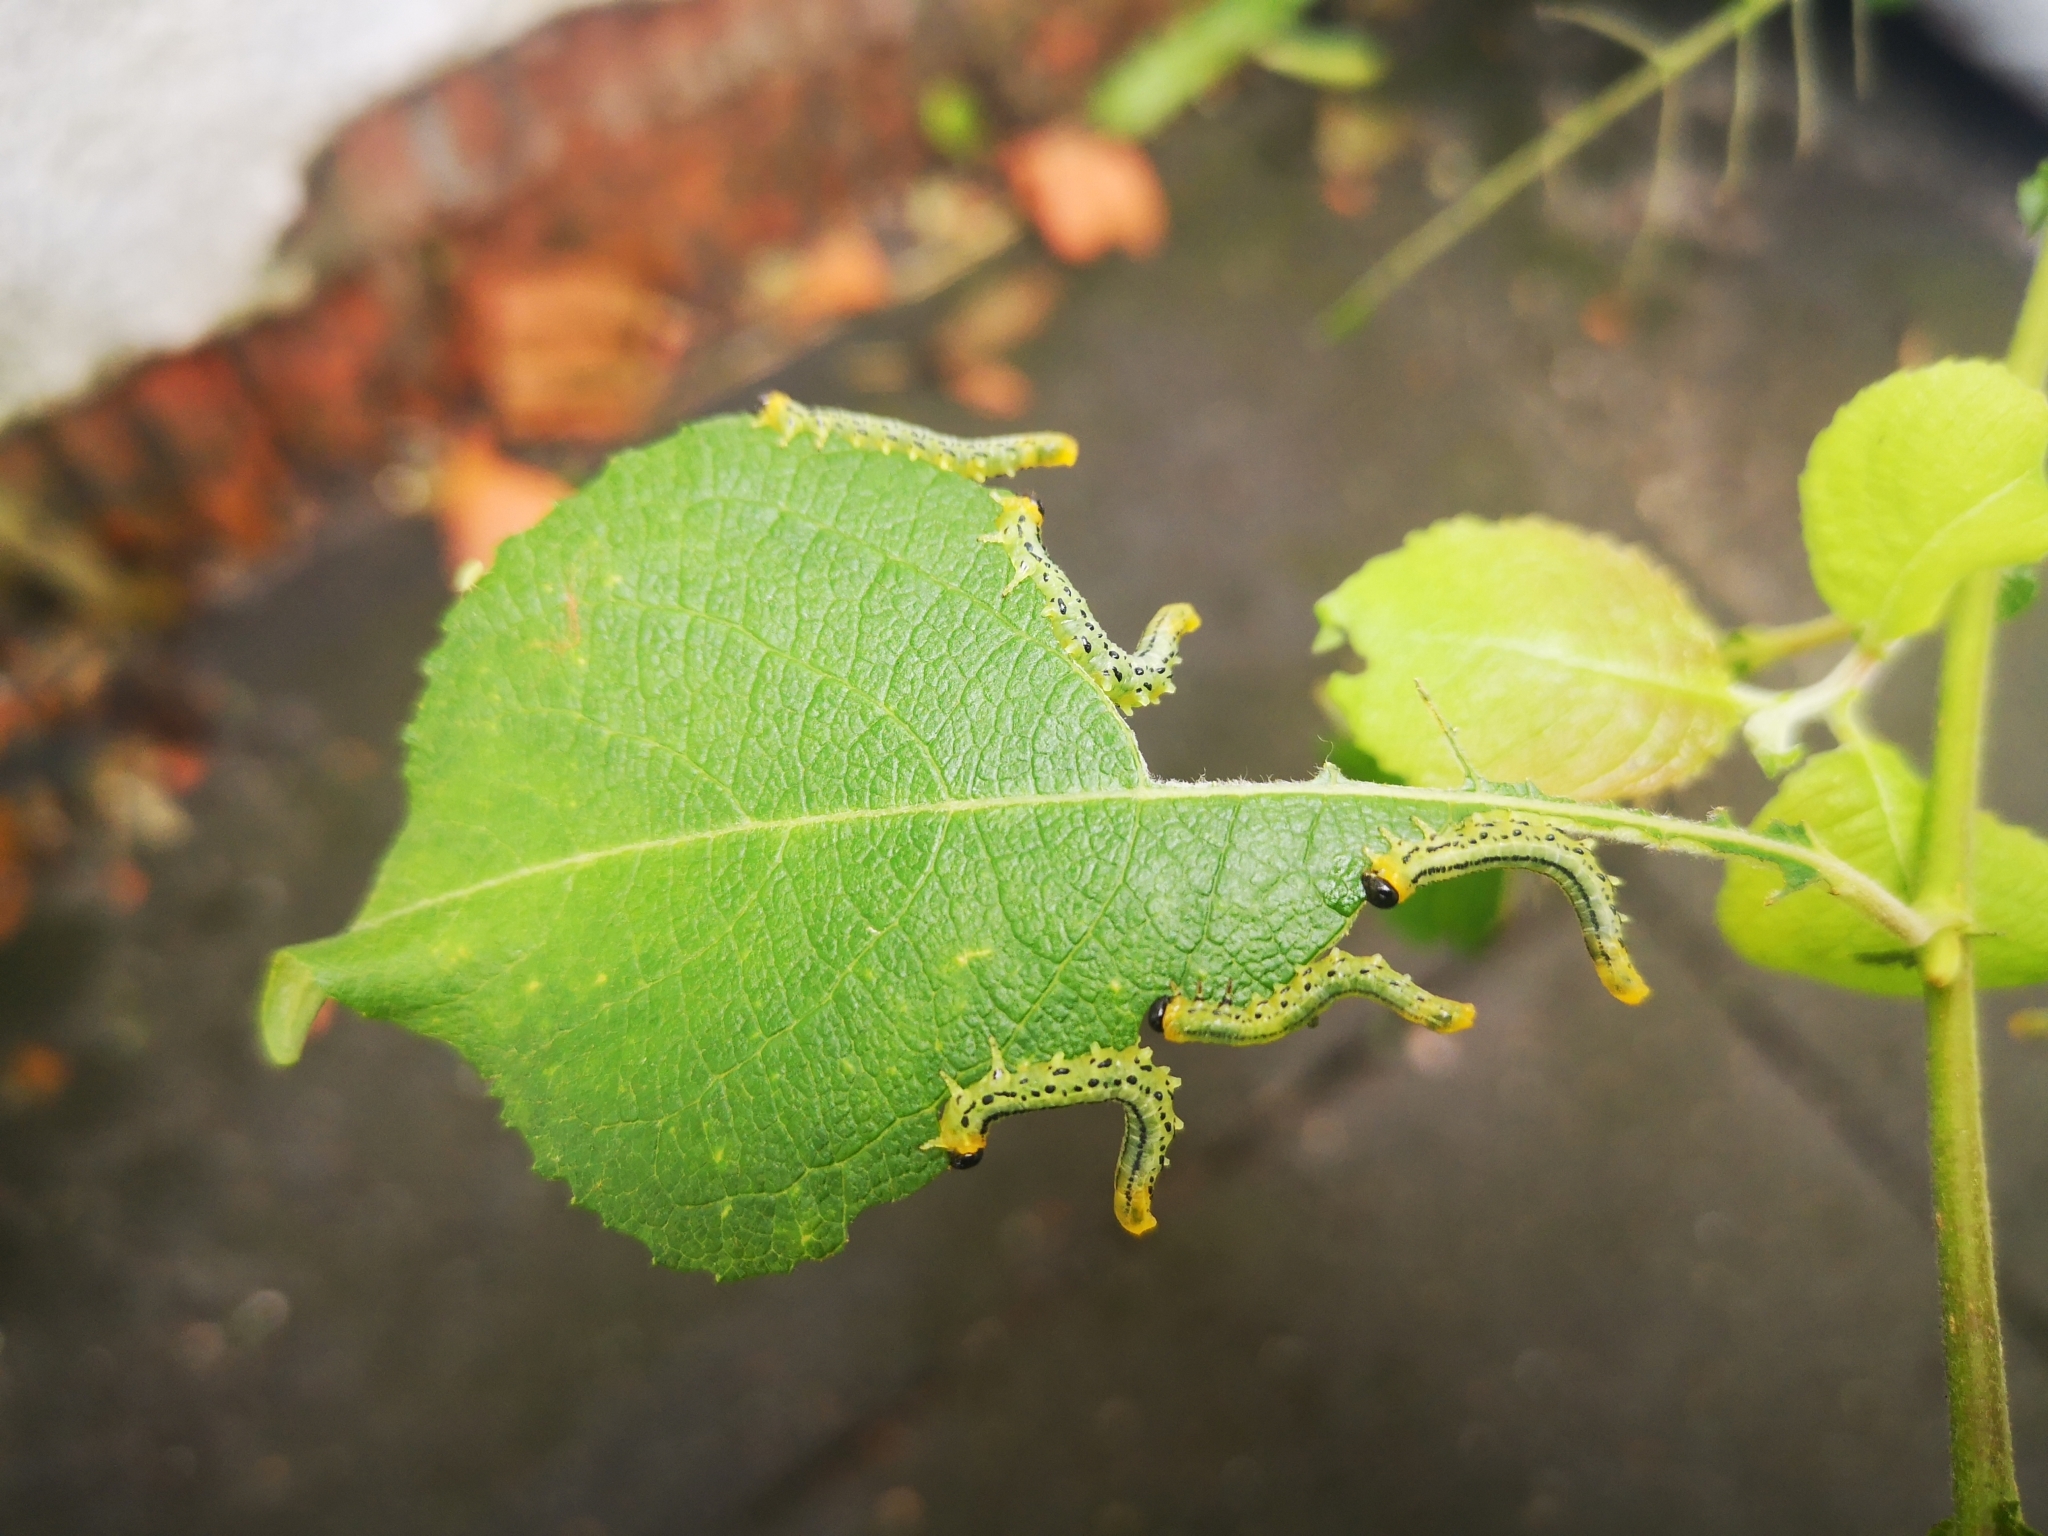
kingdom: Animalia
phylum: Arthropoda
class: Insecta
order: Hymenoptera
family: Tenthredinidae
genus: Nematus
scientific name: Nematus pavidus
